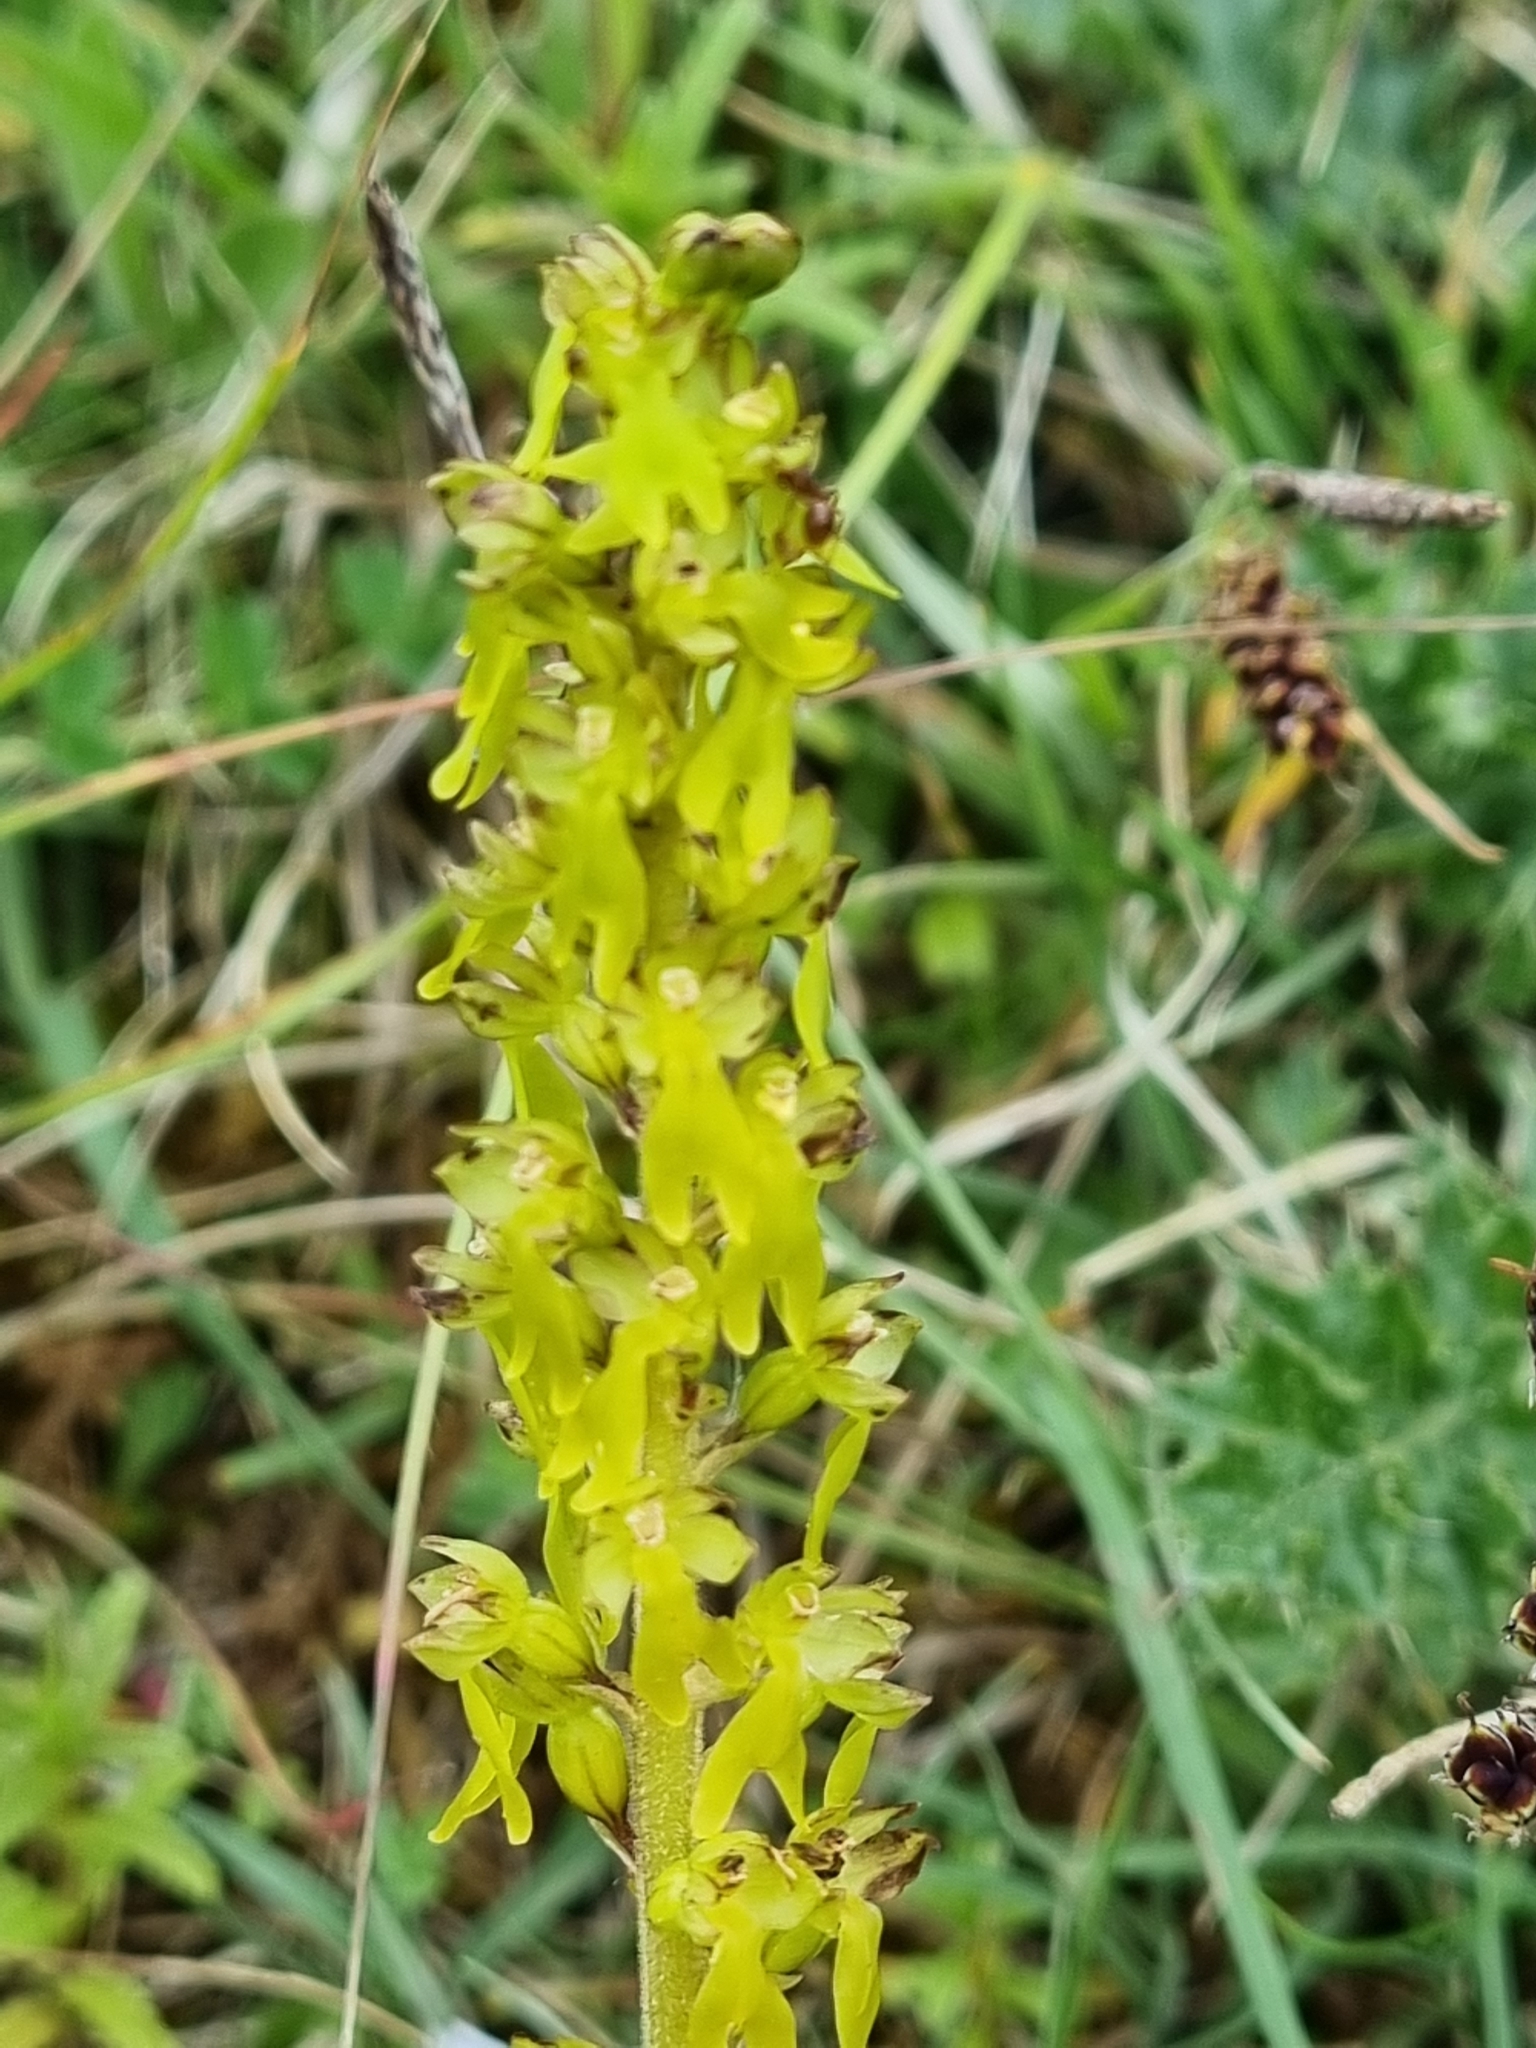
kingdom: Plantae
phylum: Tracheophyta
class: Liliopsida
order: Asparagales
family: Orchidaceae
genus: Neottia
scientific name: Neottia ovata
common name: Common twayblade
